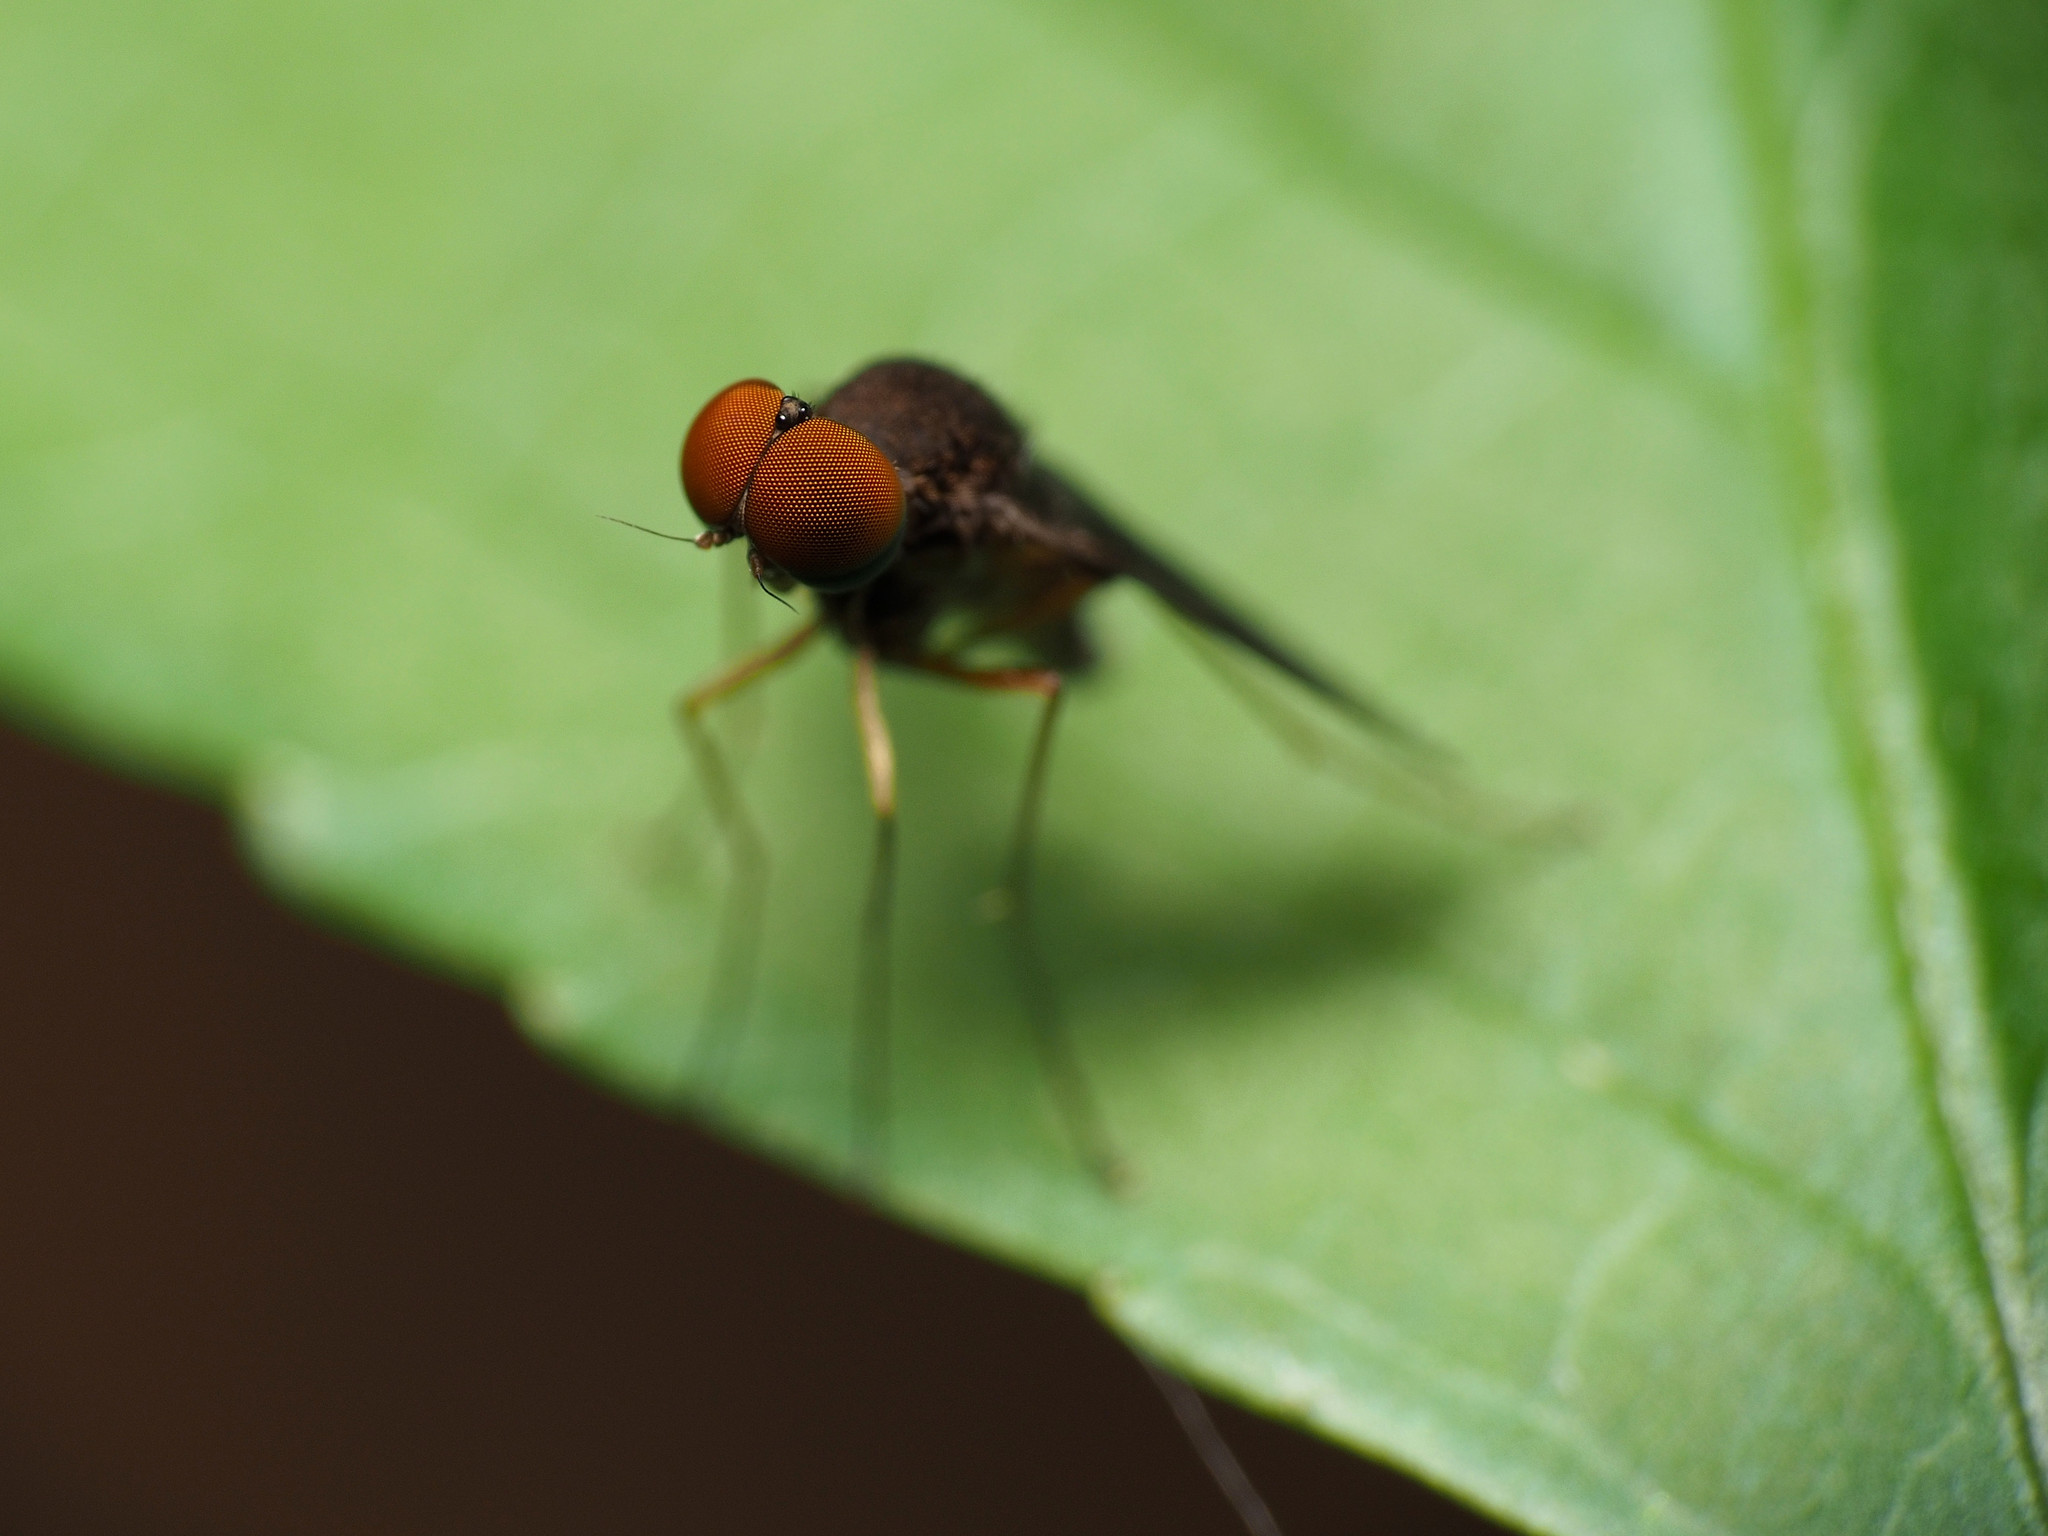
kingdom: Animalia
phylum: Arthropoda
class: Insecta
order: Diptera
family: Rhagionidae
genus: Chrysopilus
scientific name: Chrysopilus quadratus
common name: Quadrate snipe fly
